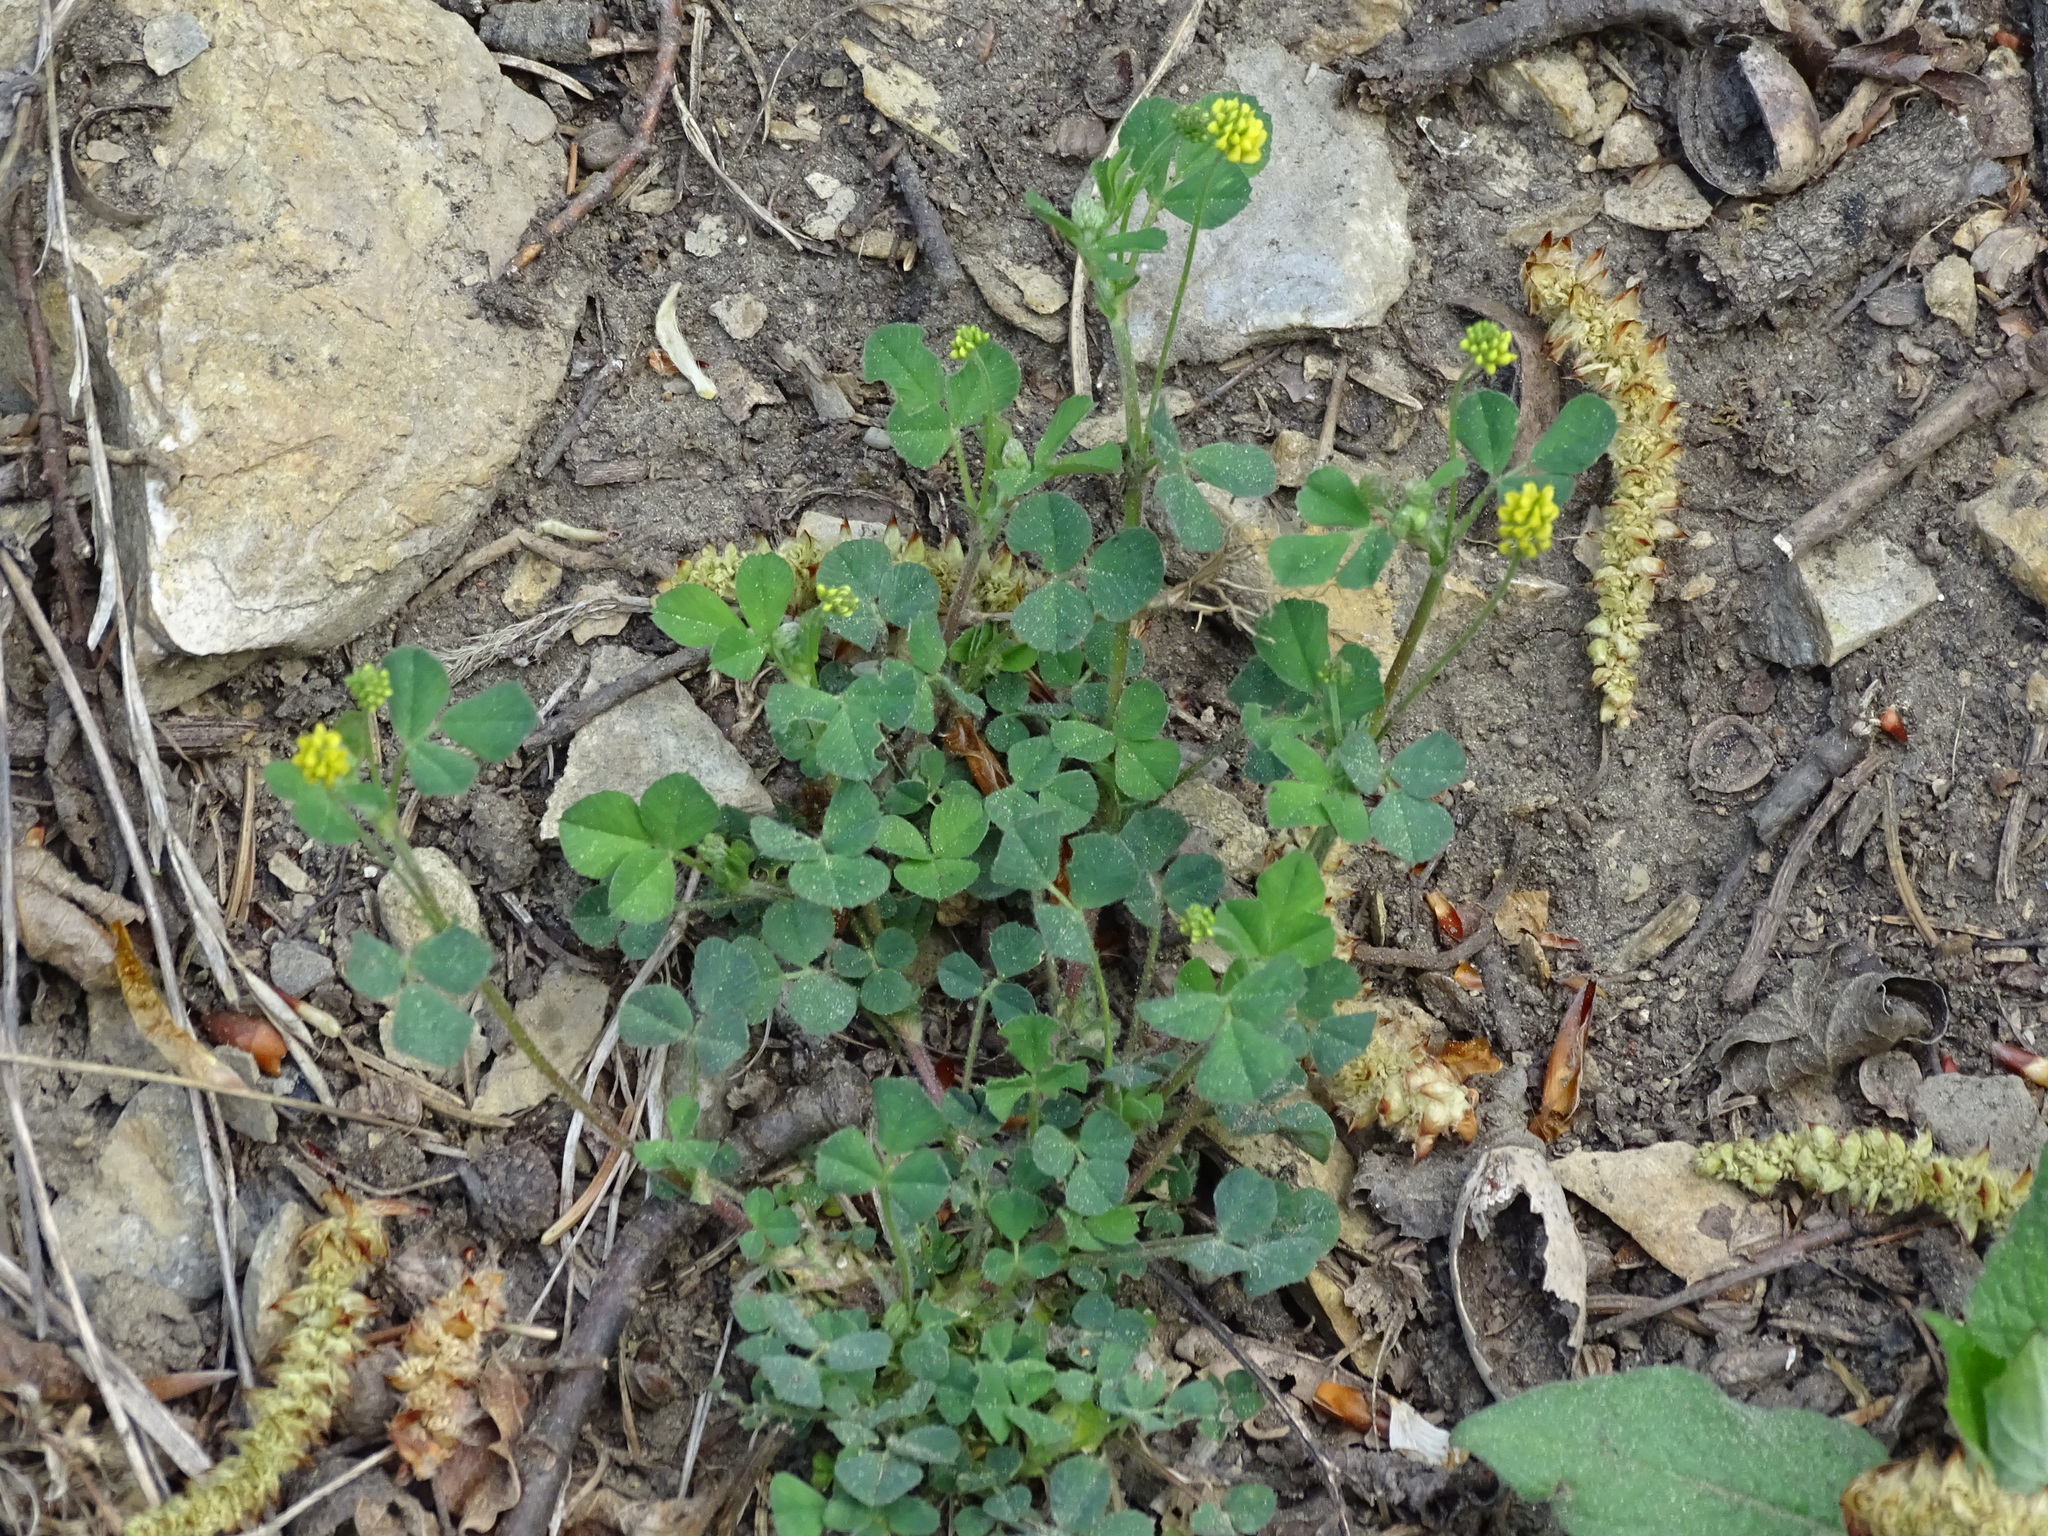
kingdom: Plantae
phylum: Tracheophyta
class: Magnoliopsida
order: Fabales
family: Fabaceae
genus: Medicago
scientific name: Medicago lupulina
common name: Black medick
